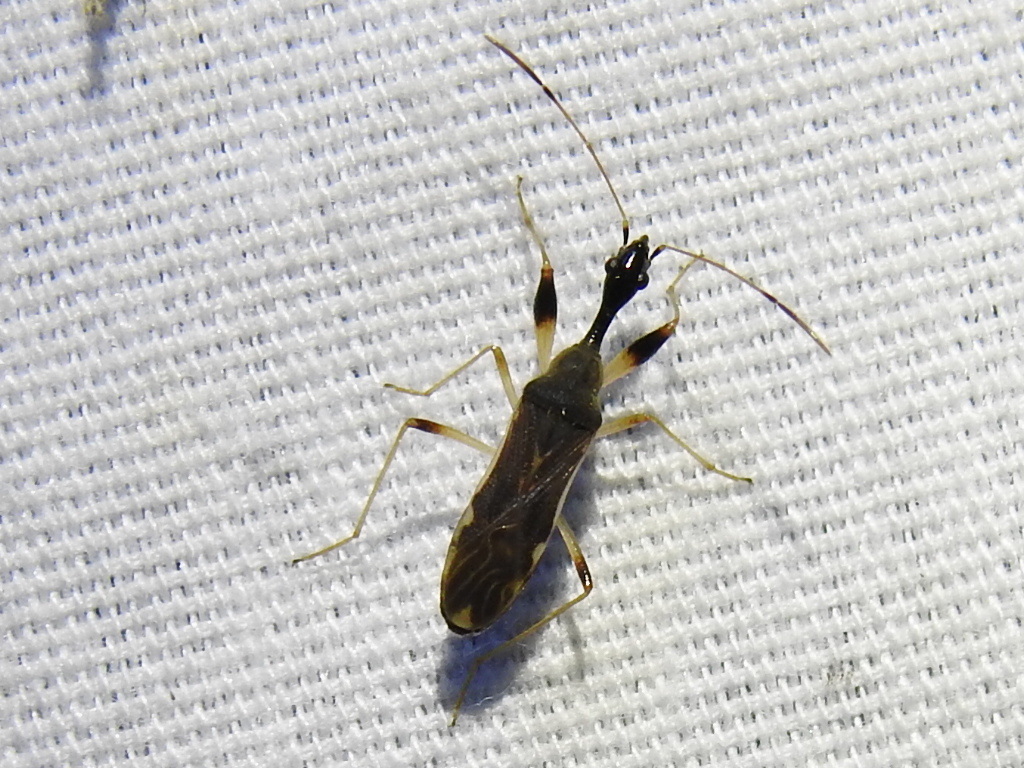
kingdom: Animalia
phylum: Arthropoda
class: Insecta
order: Hemiptera
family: Rhyparochromidae
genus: Myodocha
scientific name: Myodocha serripes
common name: Long-necked seed bug
